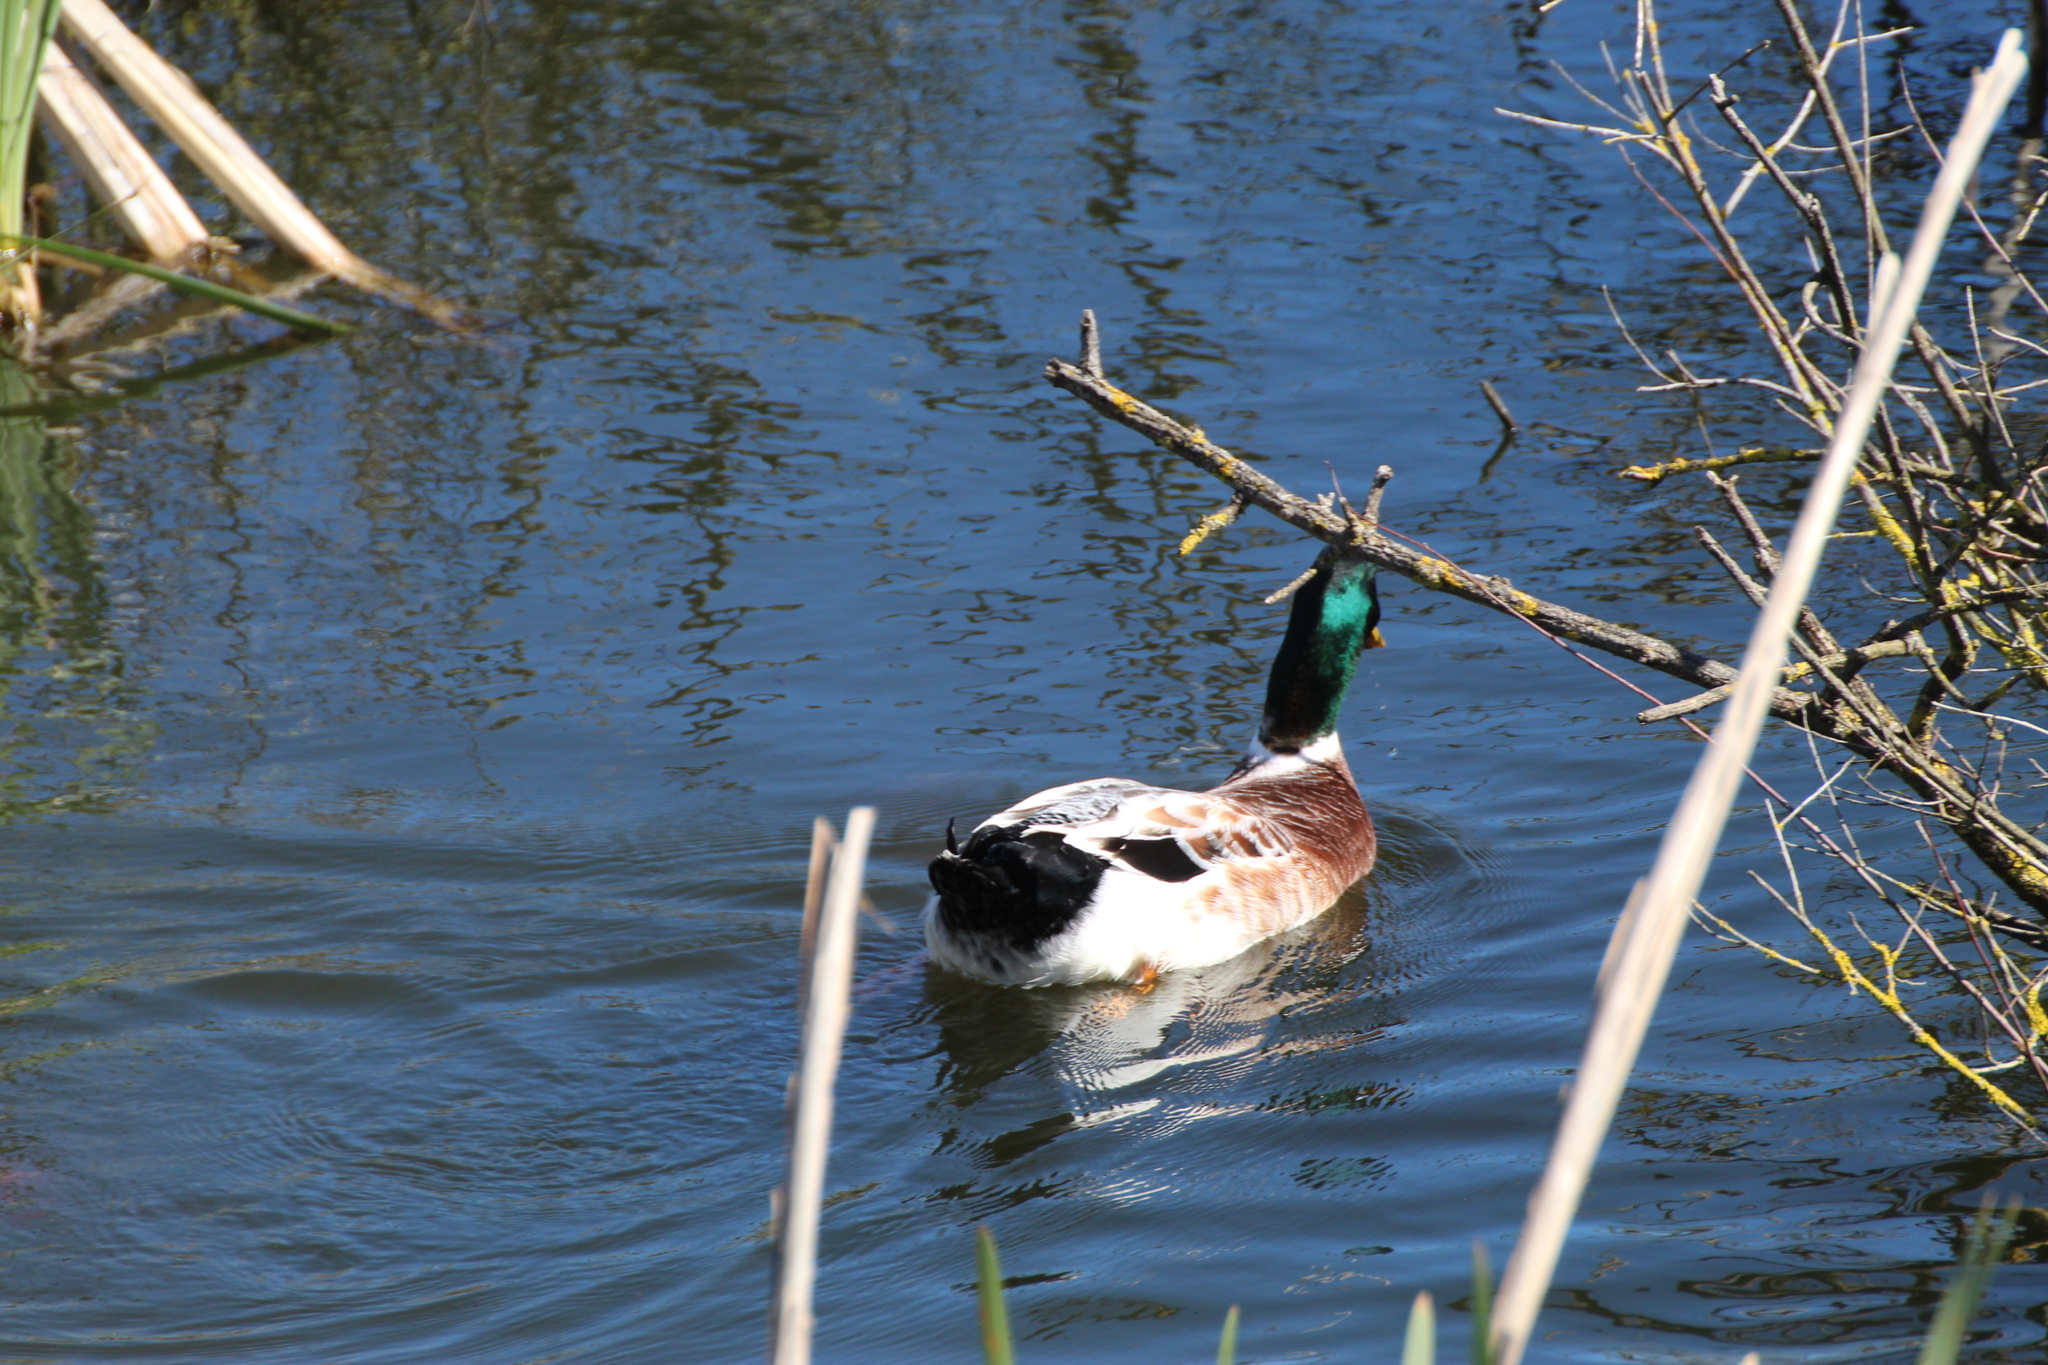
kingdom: Animalia
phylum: Chordata
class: Aves
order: Anseriformes
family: Anatidae
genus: Anas
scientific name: Anas platyrhynchos
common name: Mallard
